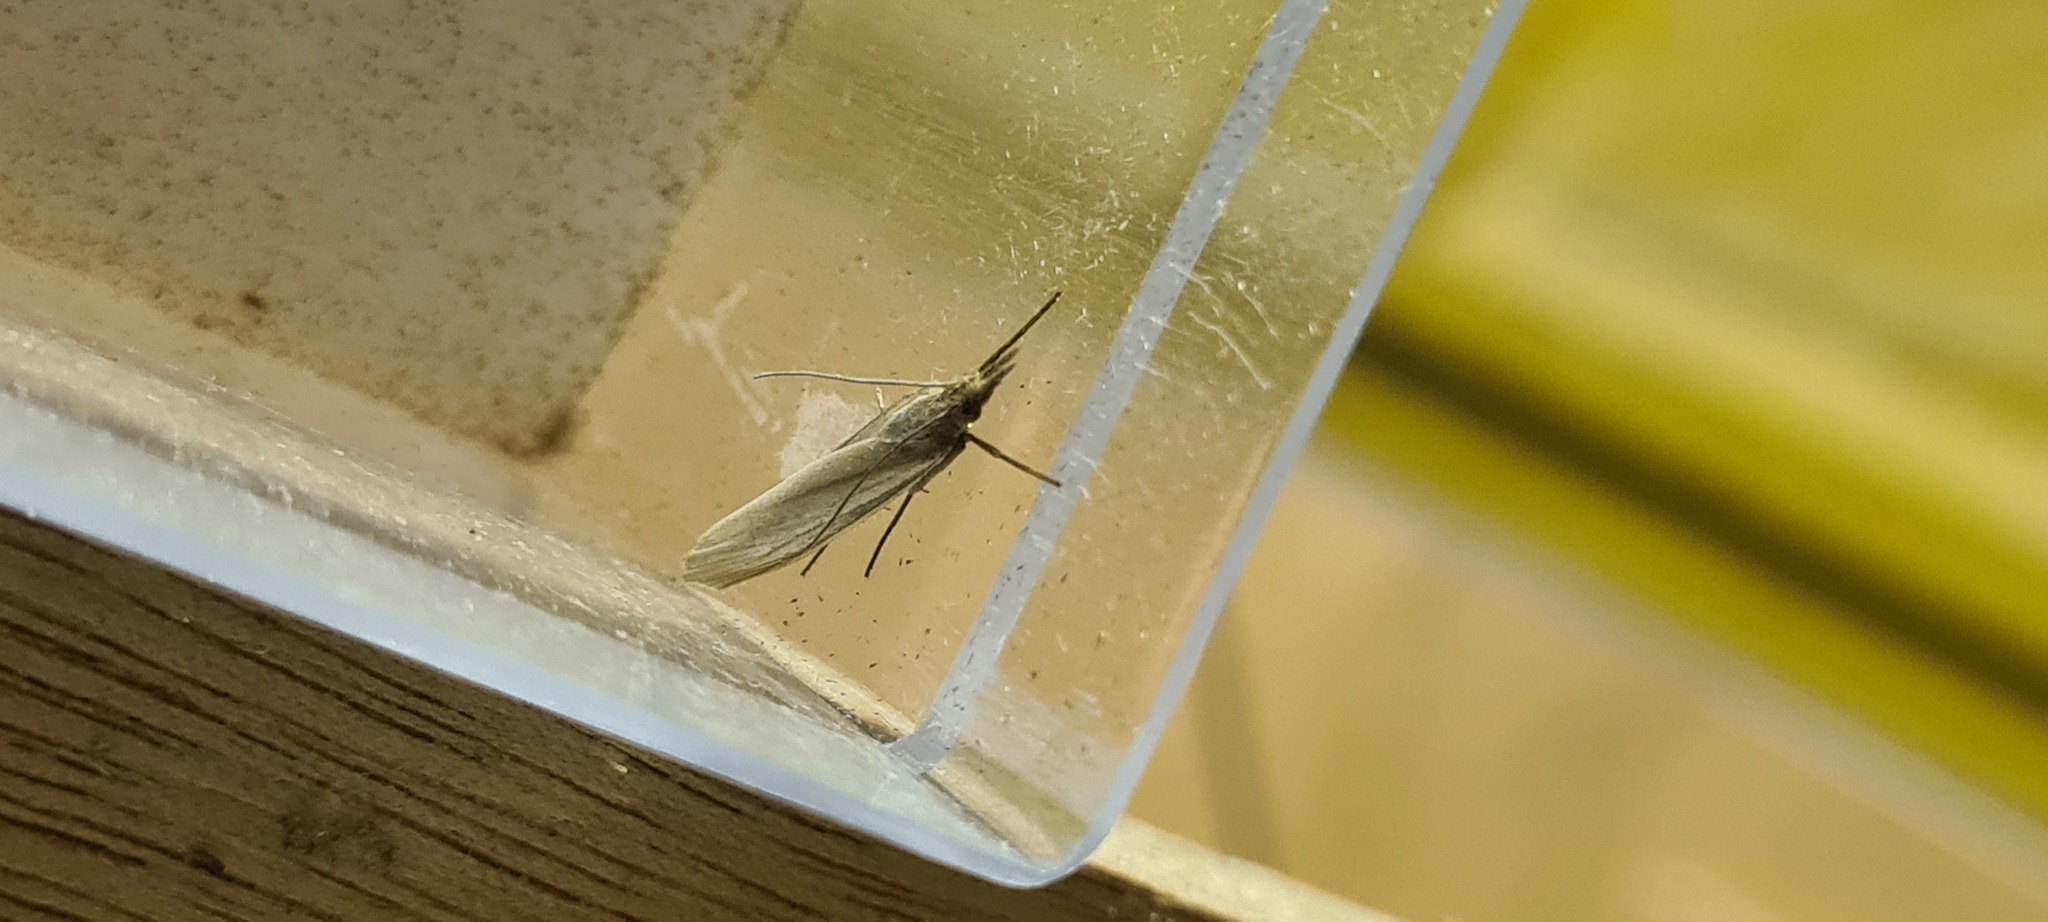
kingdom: Animalia
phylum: Arthropoda
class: Insecta
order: Lepidoptera
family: Crambidae
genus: Crambus
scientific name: Crambus perlellus
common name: Yellow satin veneer
